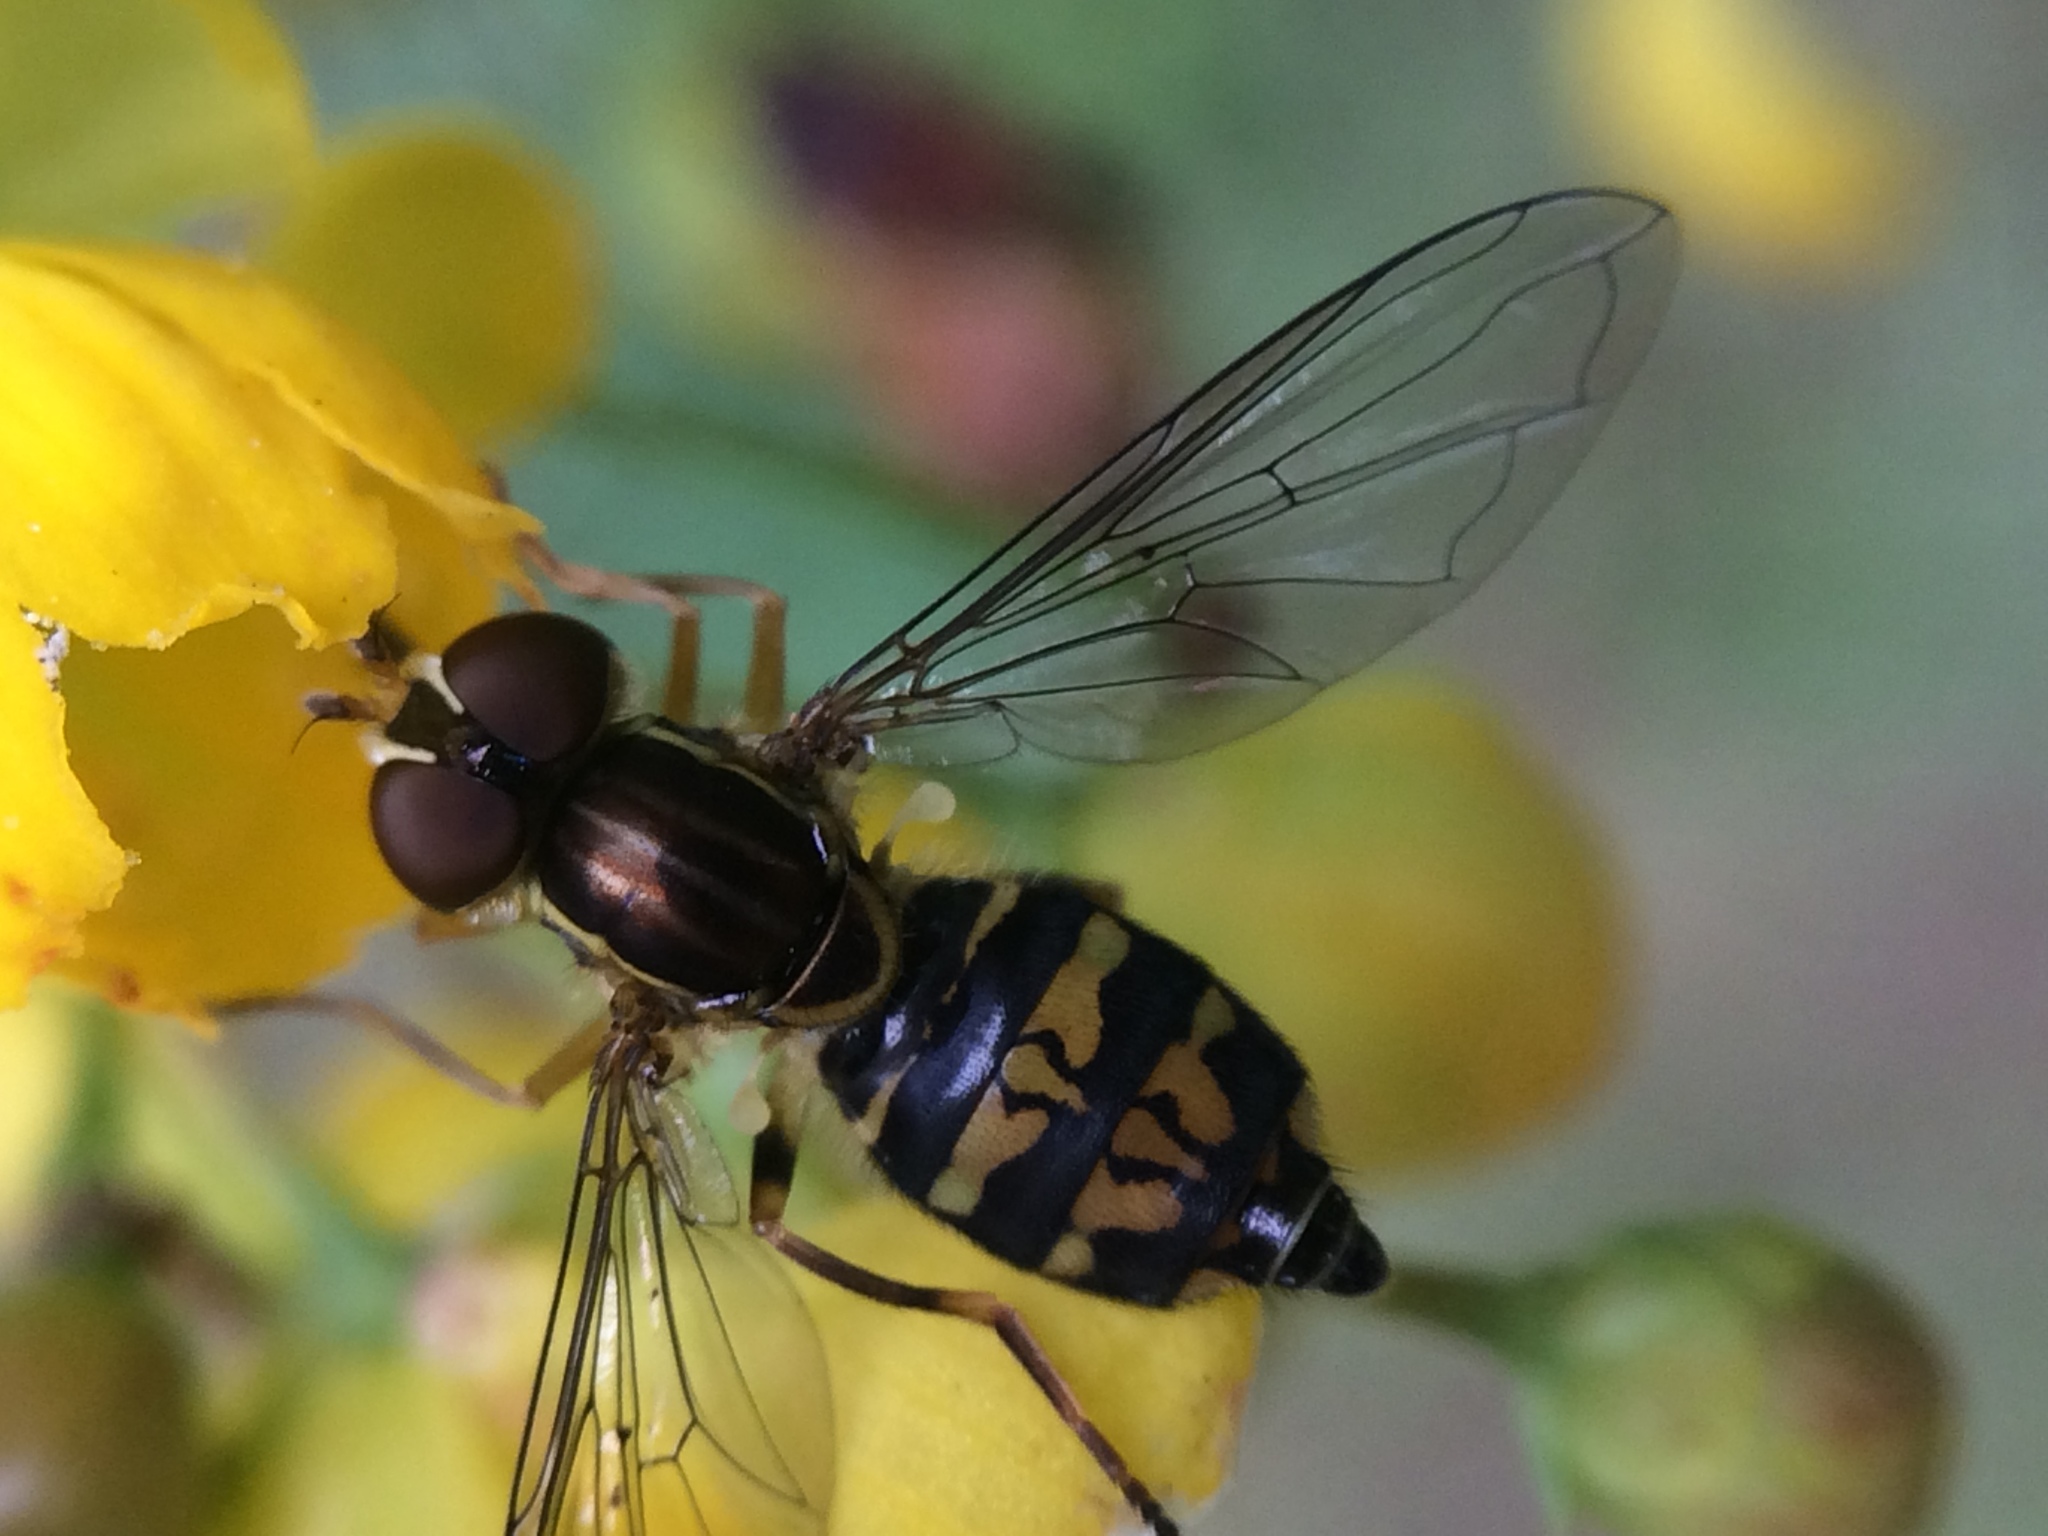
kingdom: Animalia
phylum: Arthropoda
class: Insecta
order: Diptera
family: Syrphidae
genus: Toxomerus
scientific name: Toxomerus occidentalis
